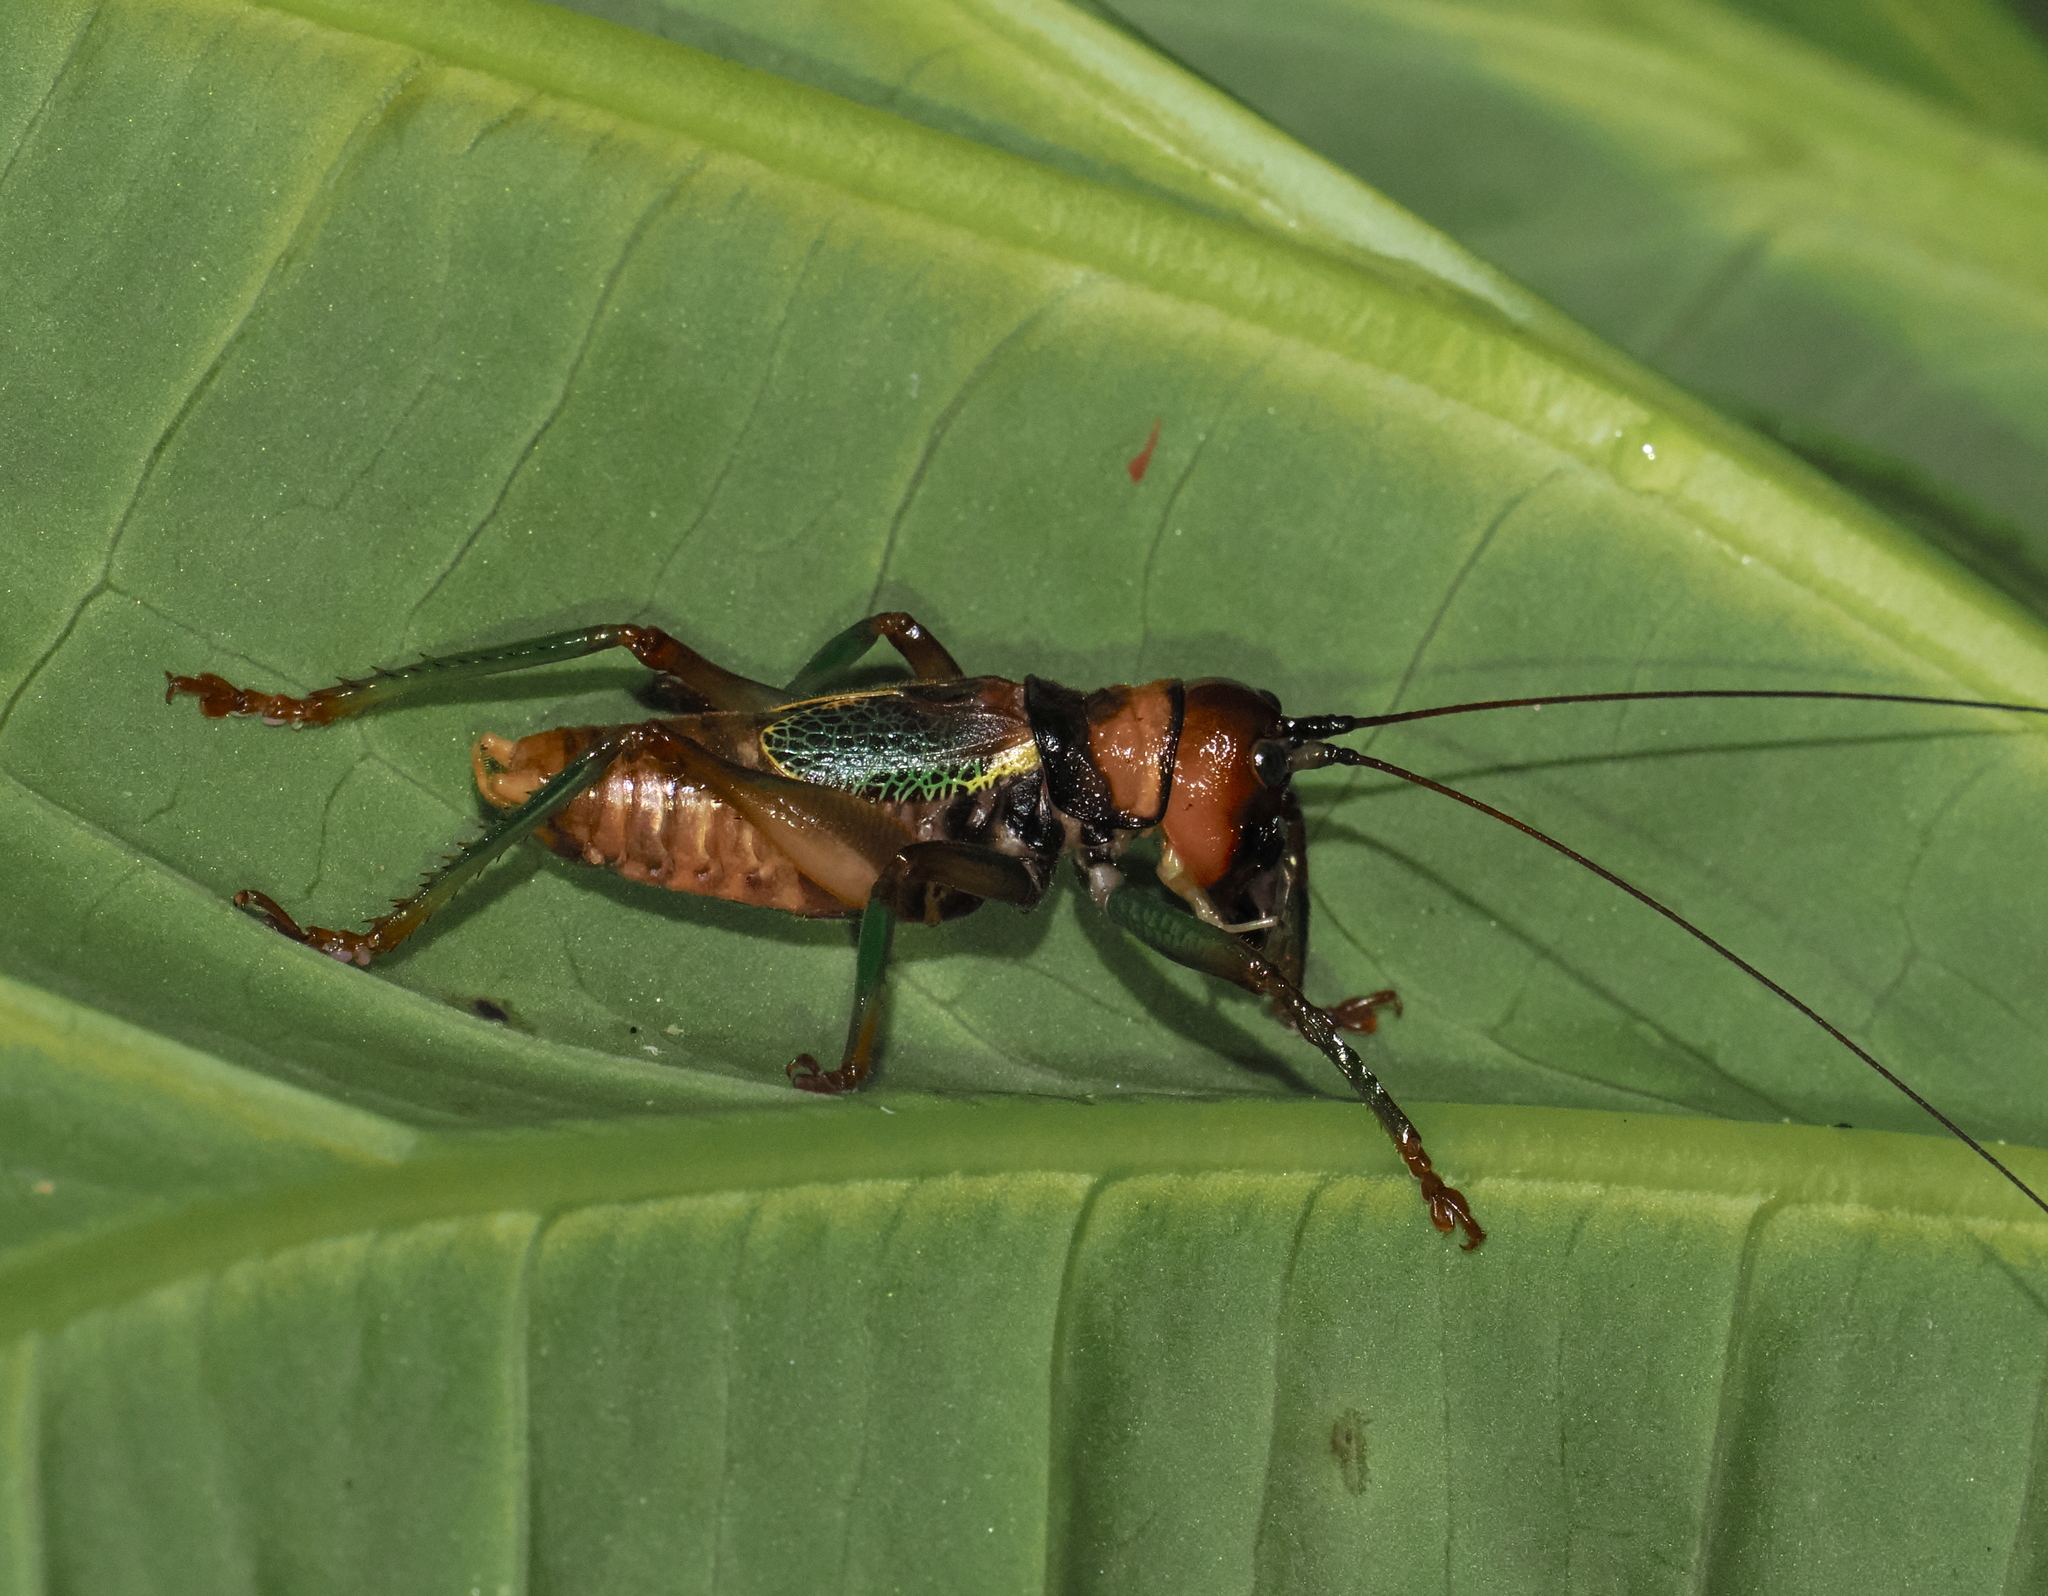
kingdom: Animalia
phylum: Arthropoda
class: Insecta
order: Orthoptera
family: Tettigoniidae
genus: Gnathoclita
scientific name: Gnathoclita sodalis
